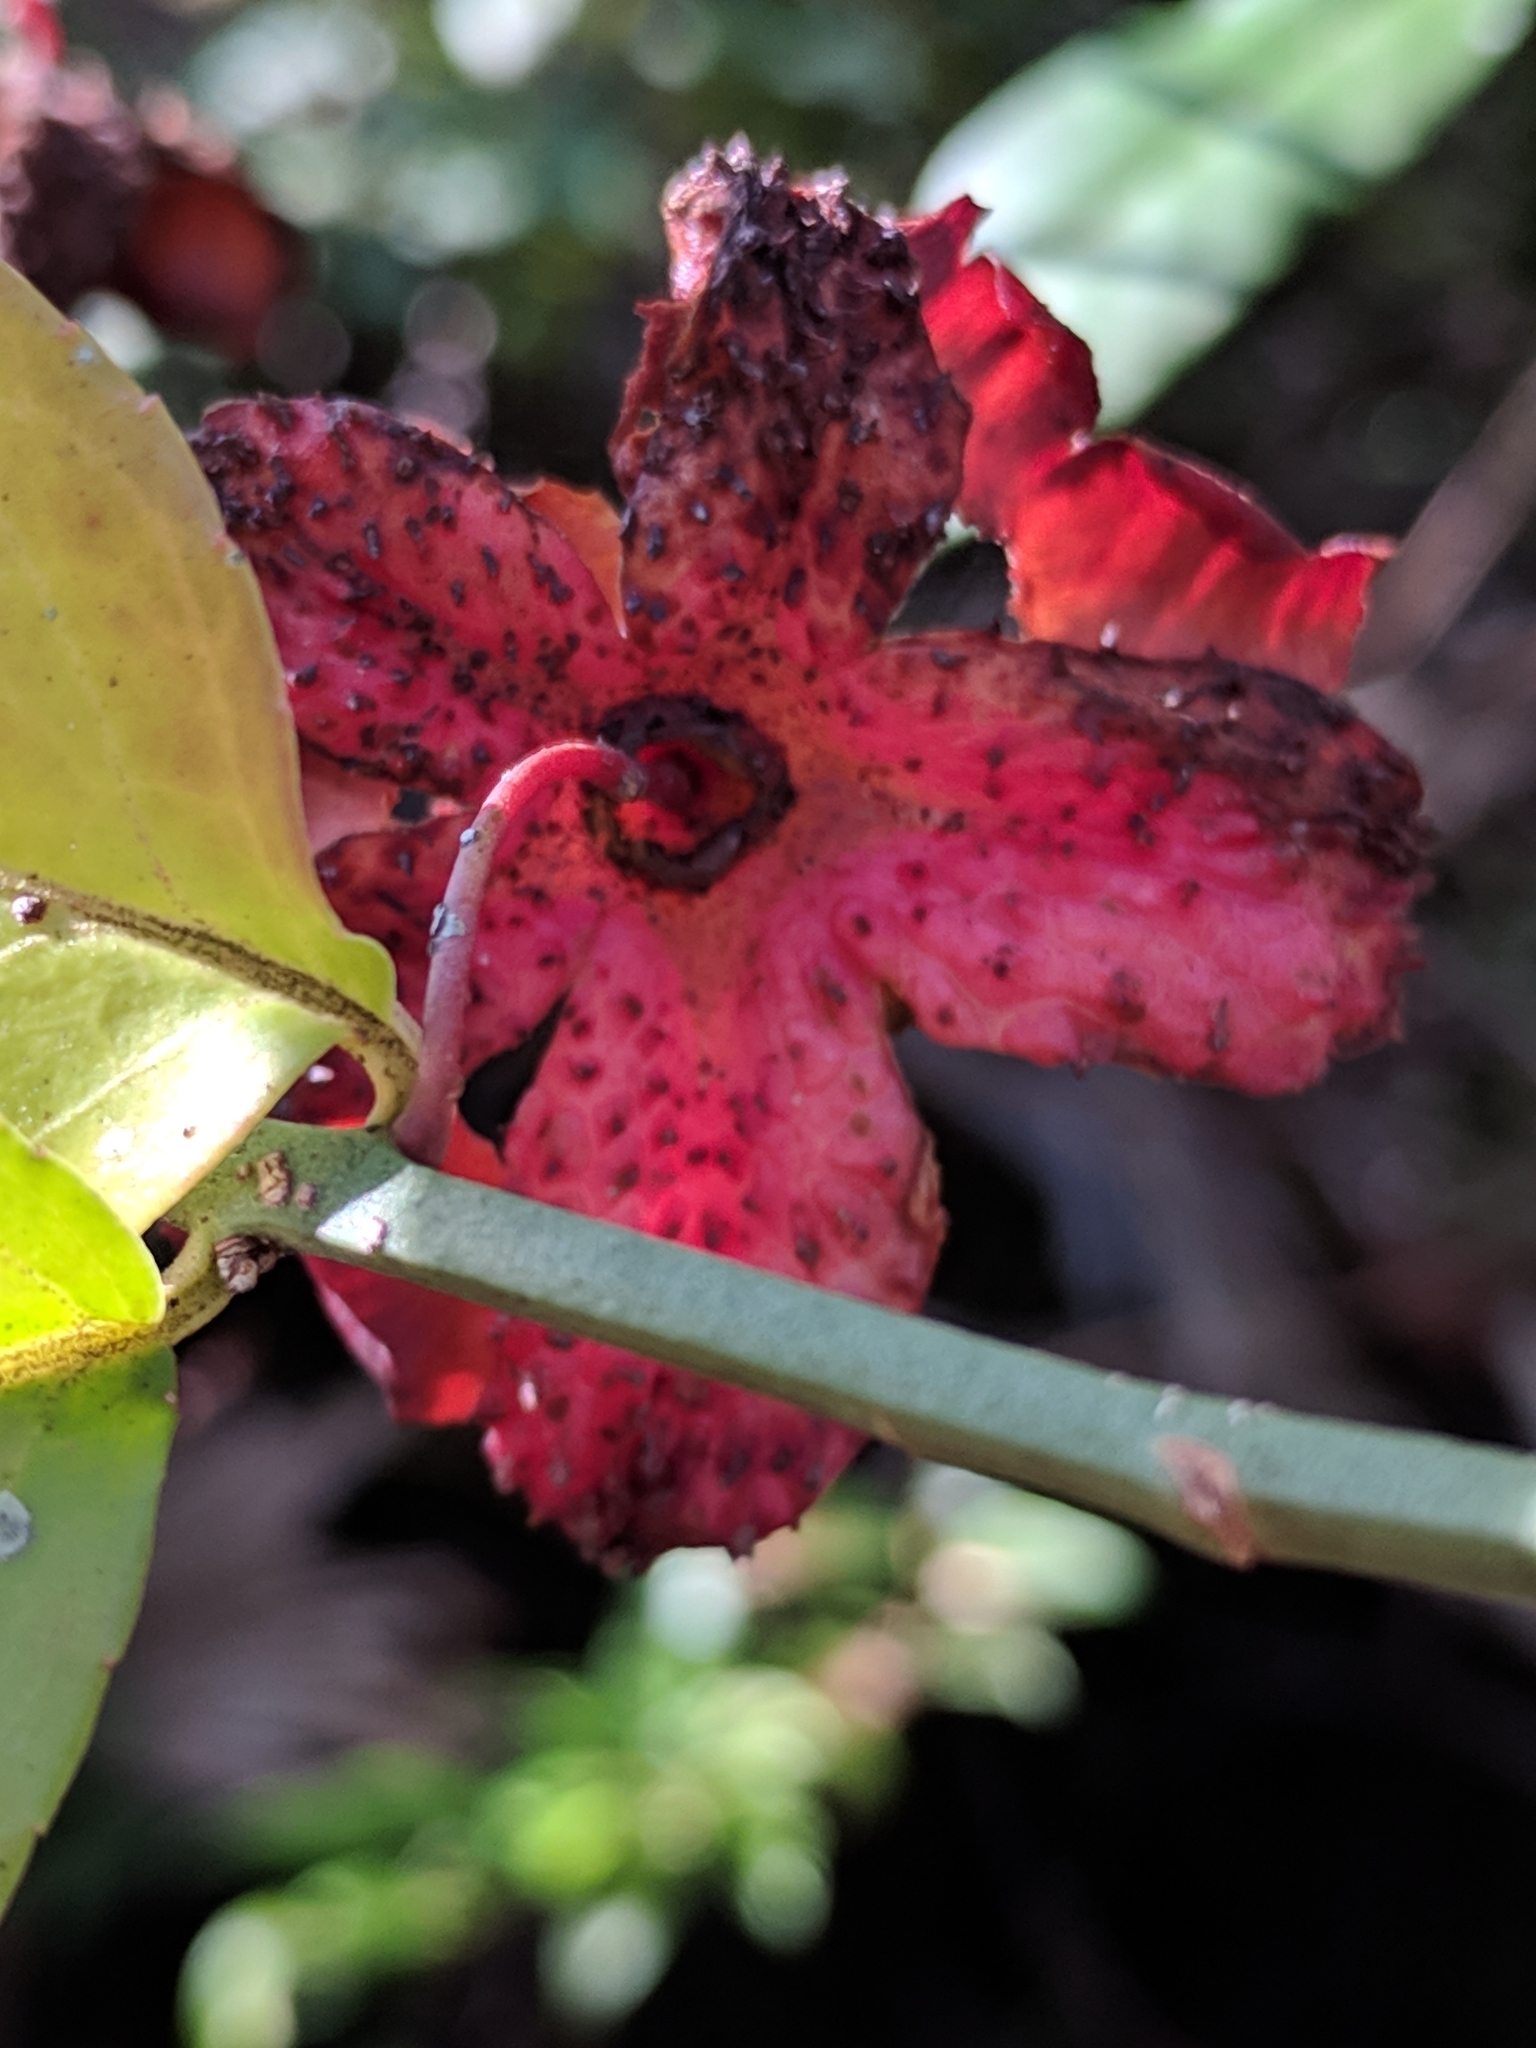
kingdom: Plantae
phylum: Tracheophyta
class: Magnoliopsida
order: Celastrales
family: Celastraceae
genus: Euonymus
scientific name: Euonymus americanus
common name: Bursting-heart
